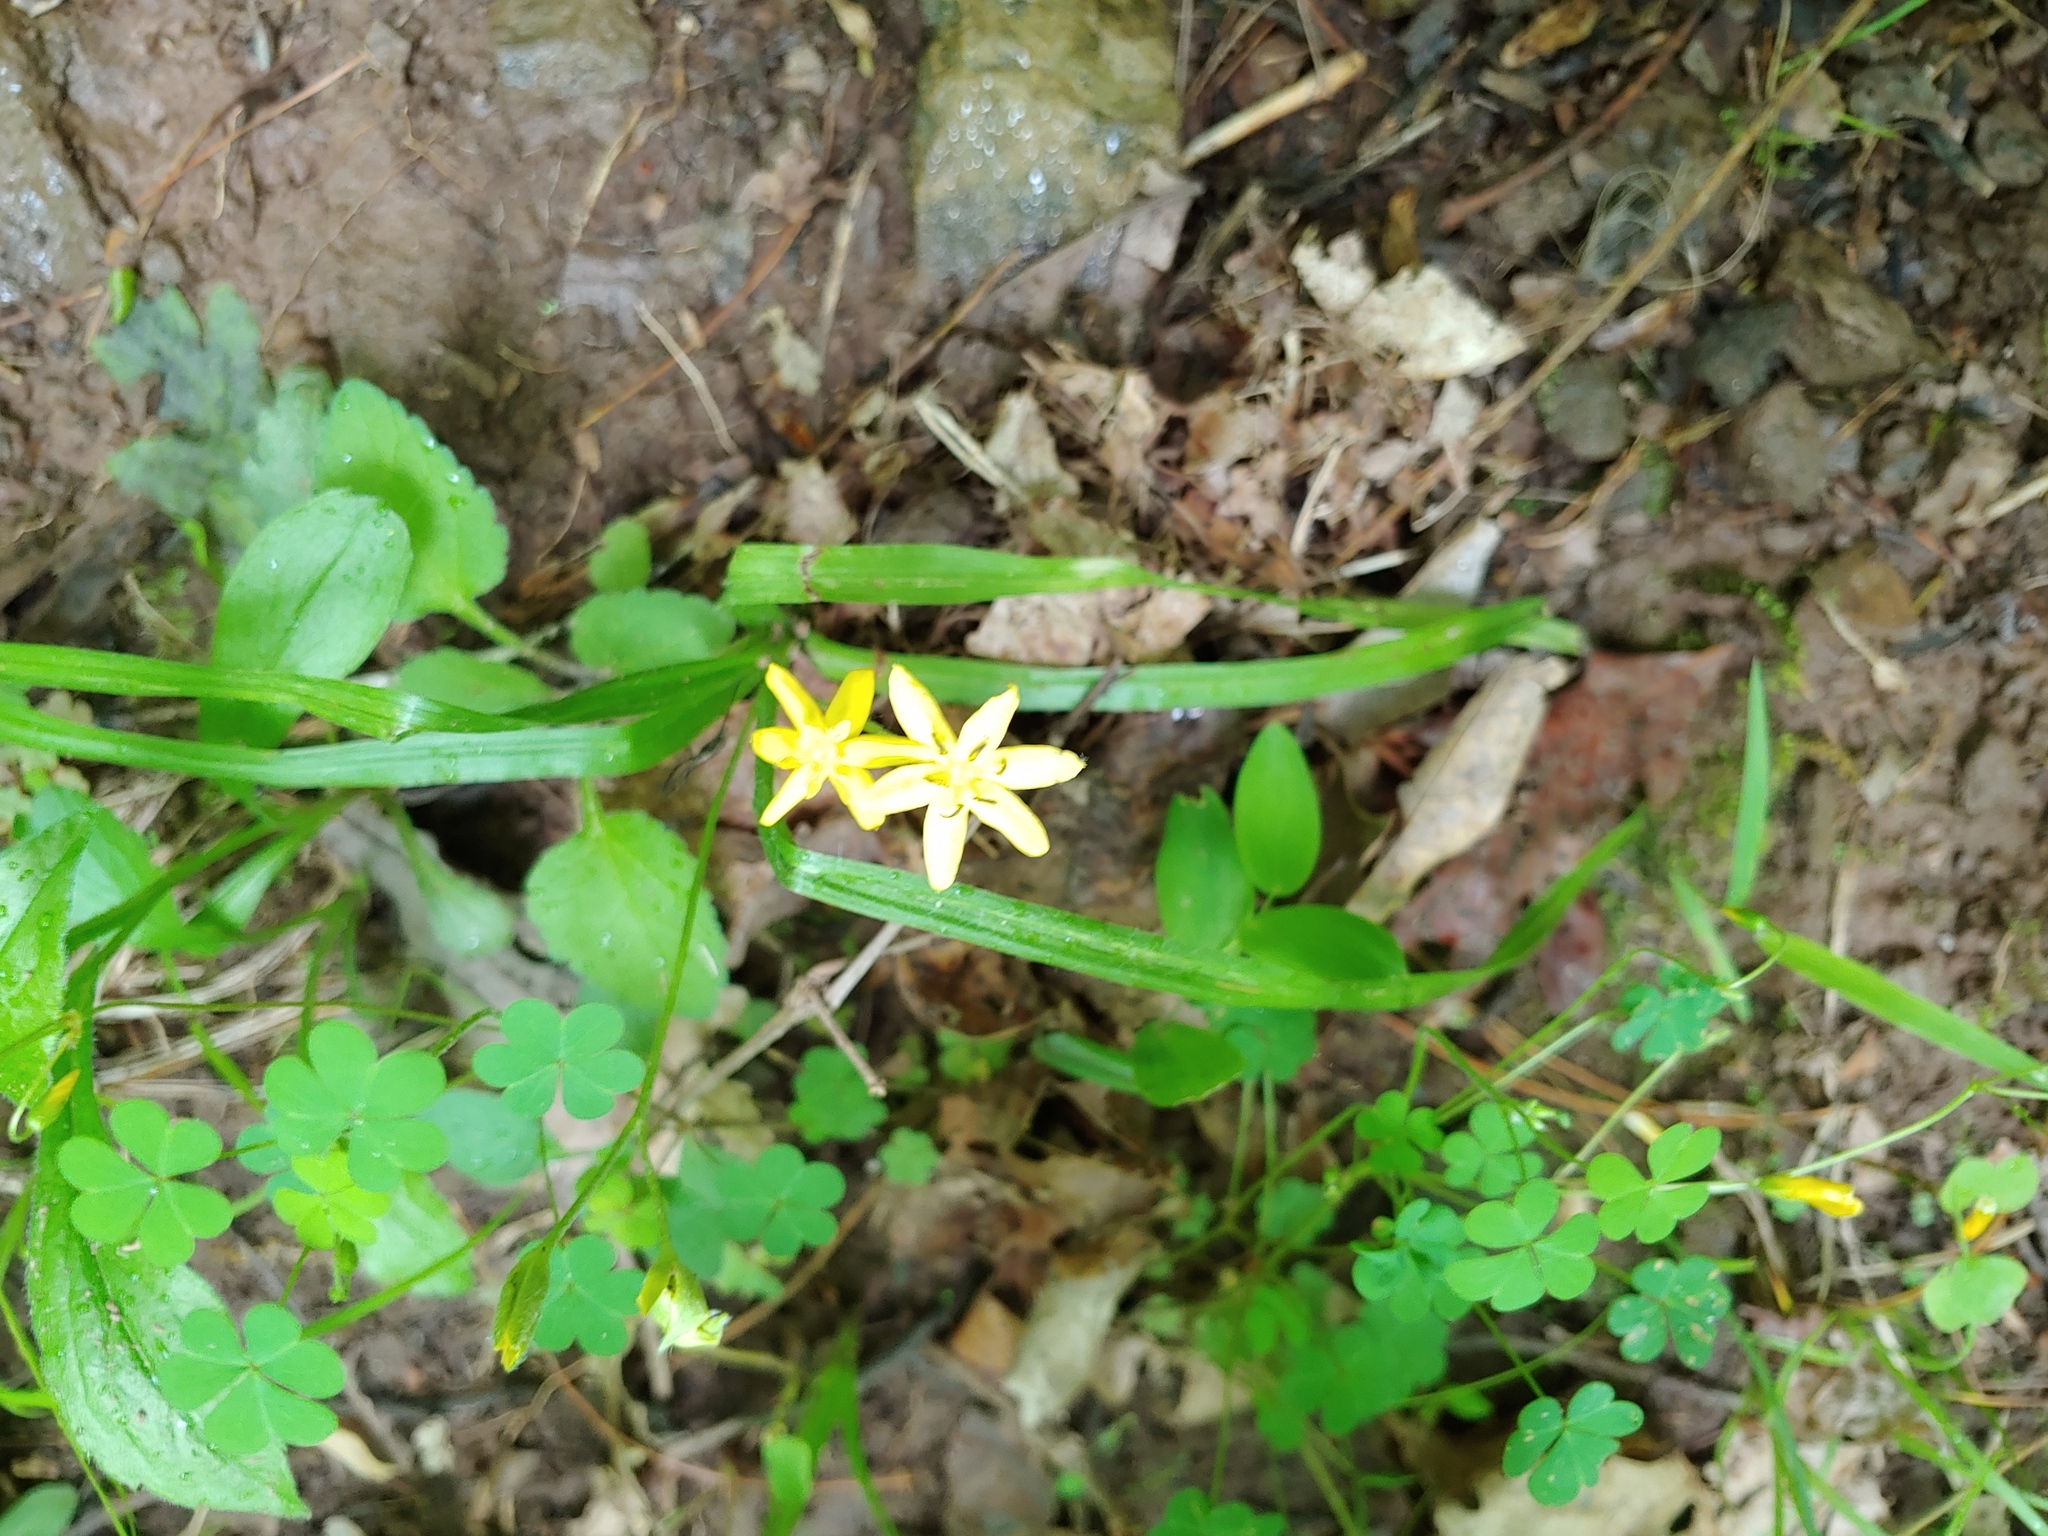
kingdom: Plantae
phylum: Tracheophyta
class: Liliopsida
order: Asparagales
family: Hypoxidaceae
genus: Hypoxis
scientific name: Hypoxis hirsuta
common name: Common goldstar
